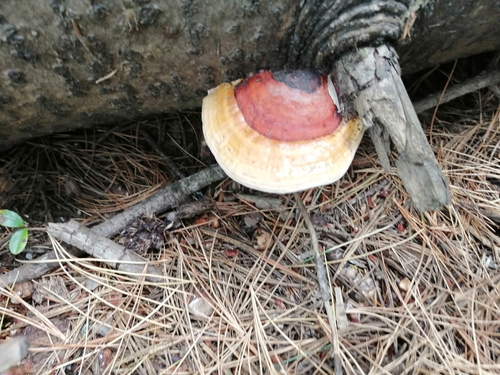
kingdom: Fungi
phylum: Basidiomycota
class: Agaricomycetes
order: Polyporales
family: Fomitopsidaceae
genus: Fomitopsis
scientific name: Fomitopsis pinicola
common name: Red-belted bracket
